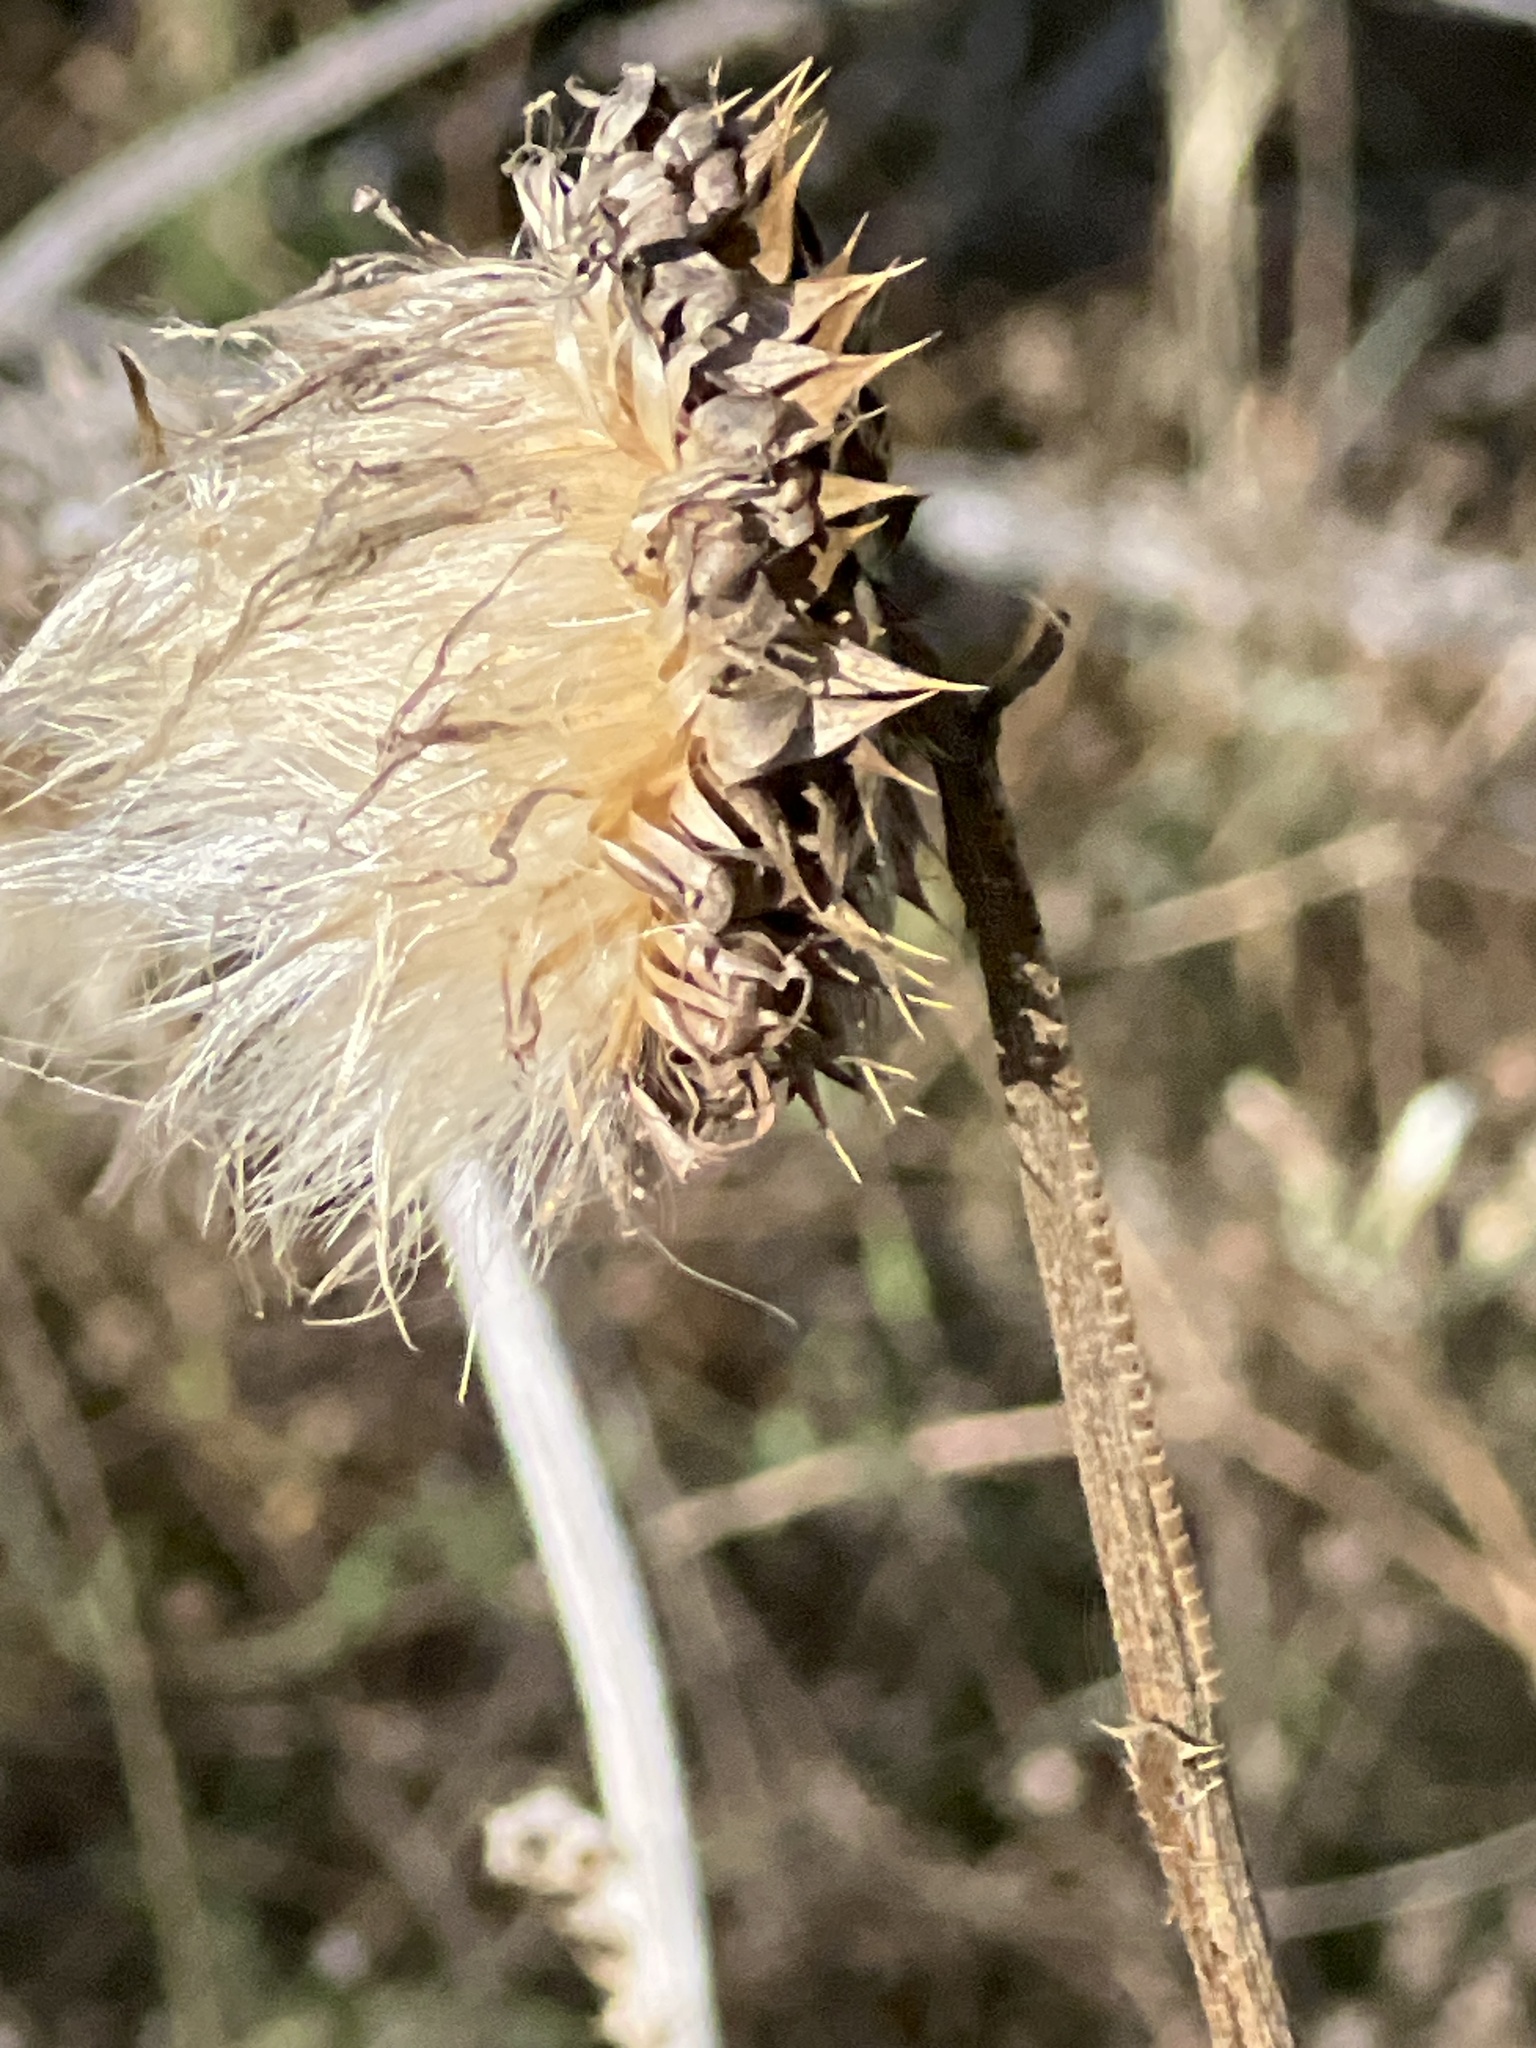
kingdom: Plantae
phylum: Tracheophyta
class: Magnoliopsida
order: Asterales
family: Asteraceae
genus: Carduus
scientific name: Carduus nutans
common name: Musk thistle
